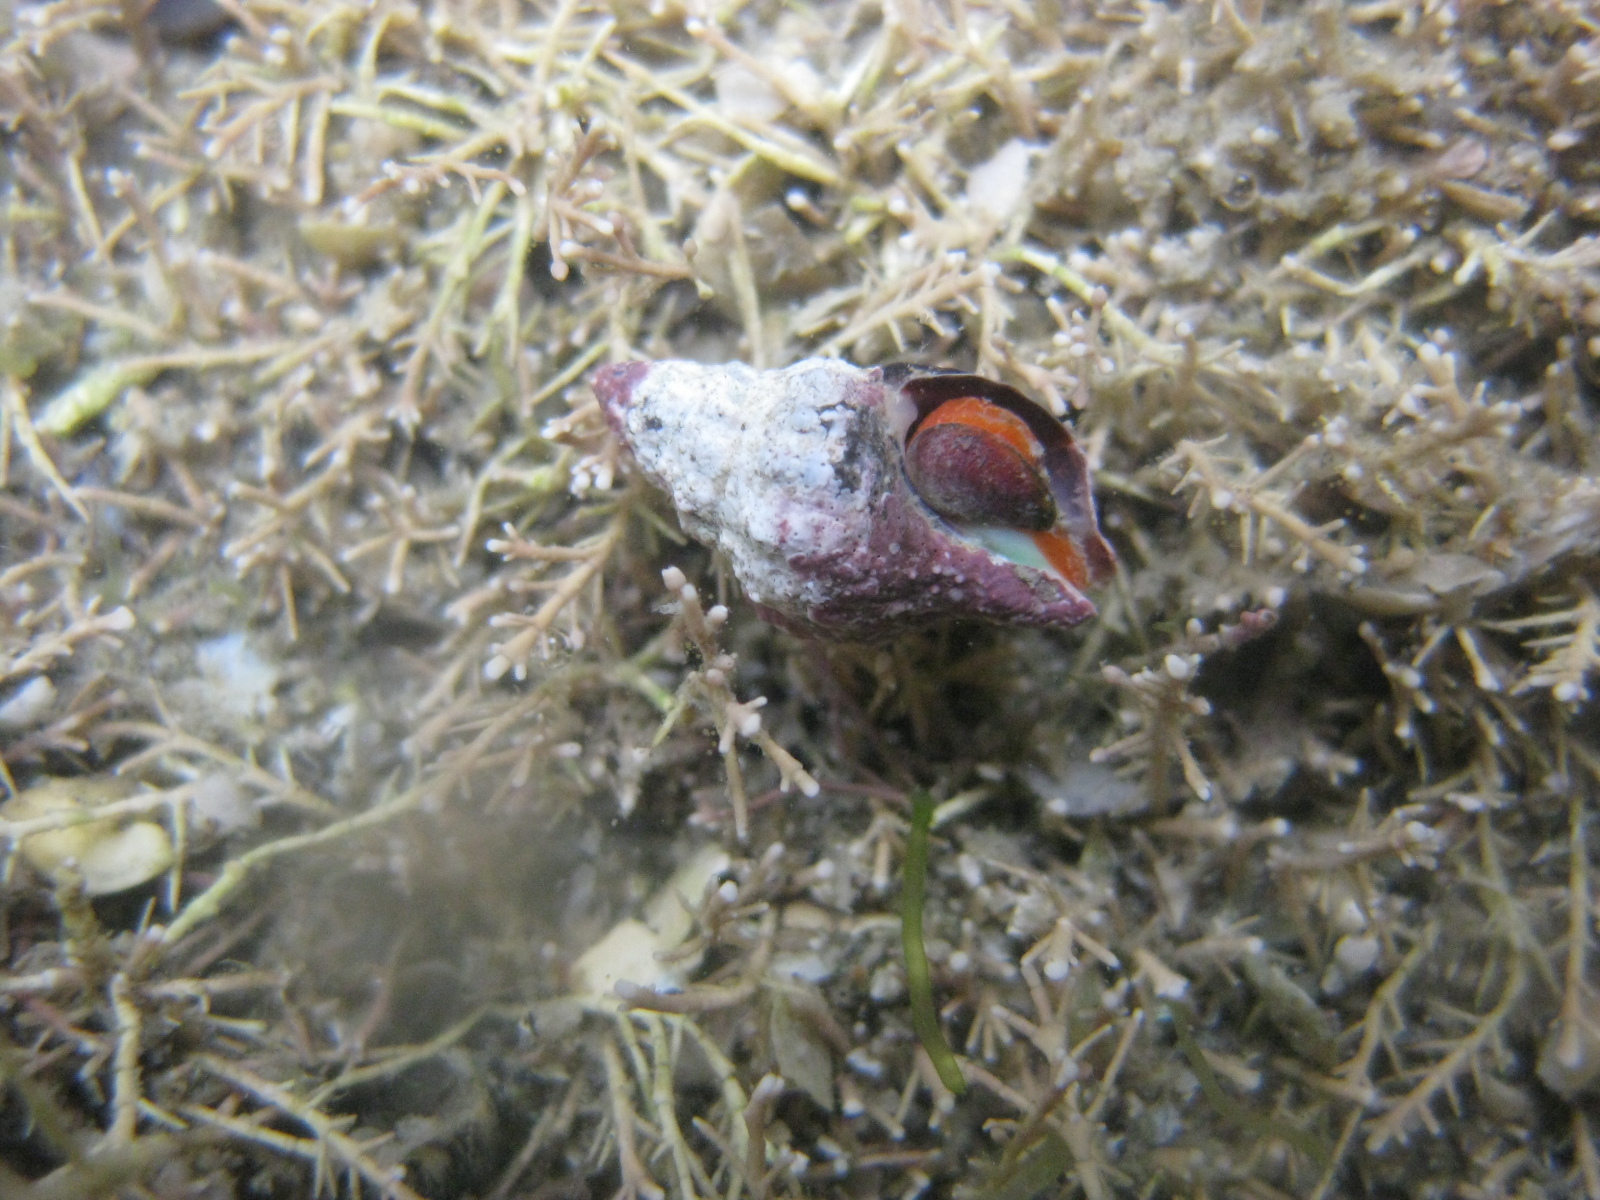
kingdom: Animalia
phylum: Mollusca
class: Gastropoda
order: Neogastropoda
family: Fasciolariidae
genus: Taron
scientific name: Taron dubius
